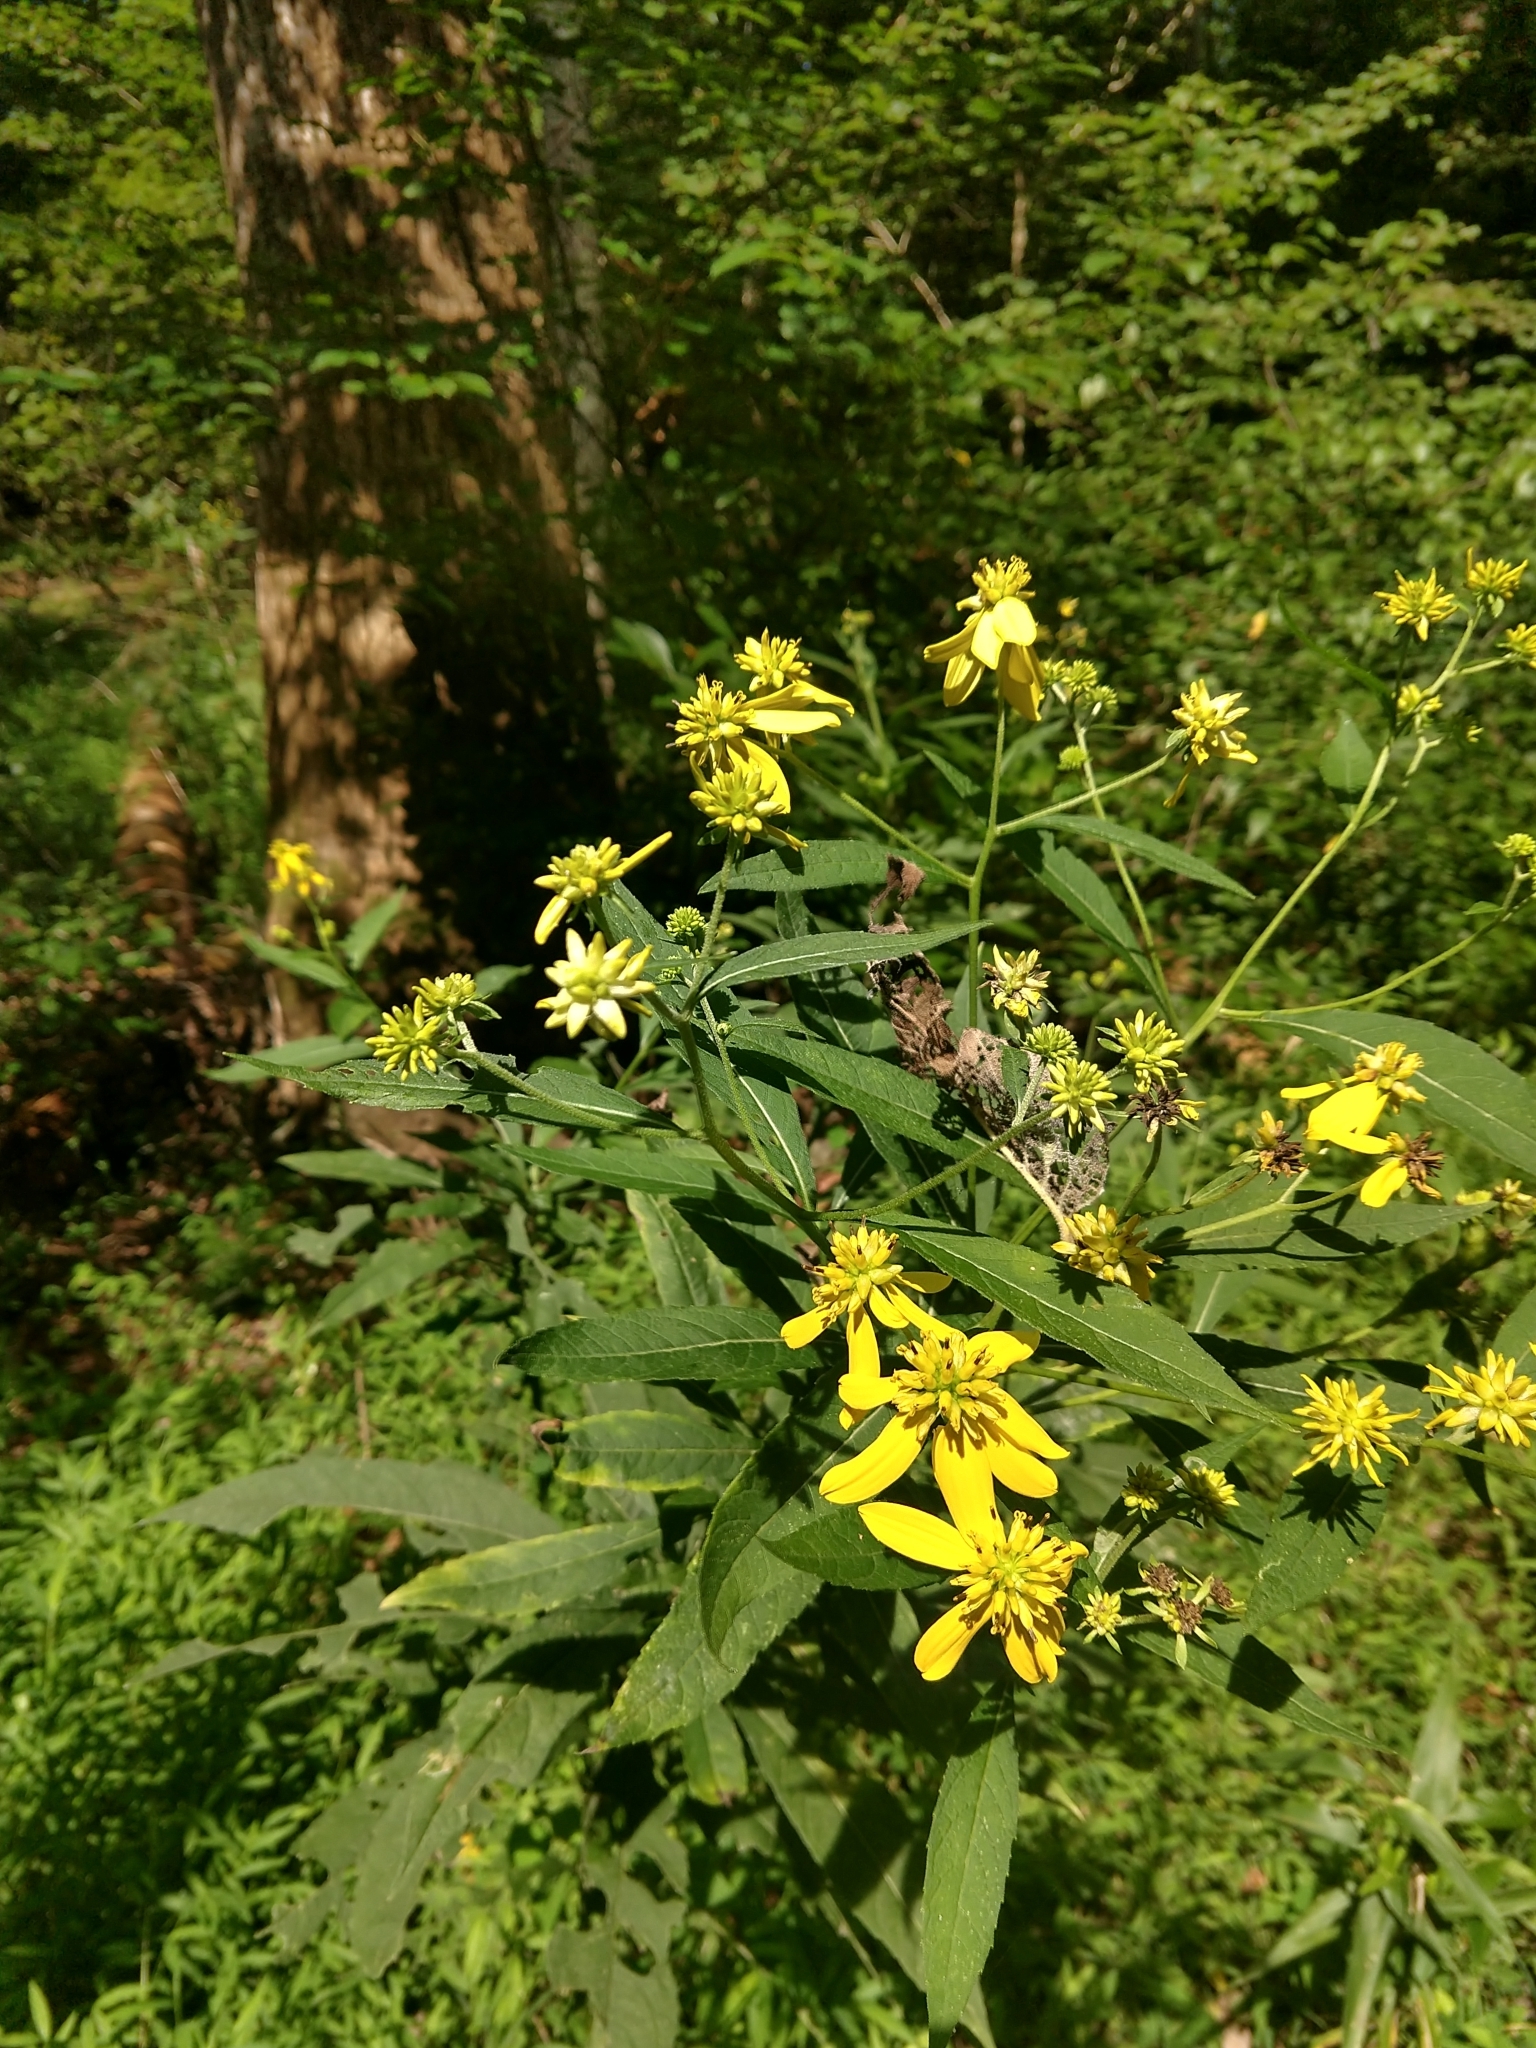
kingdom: Plantae
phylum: Tracheophyta
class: Magnoliopsida
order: Asterales
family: Asteraceae
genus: Verbesina
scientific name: Verbesina alternifolia
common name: Wingstem
